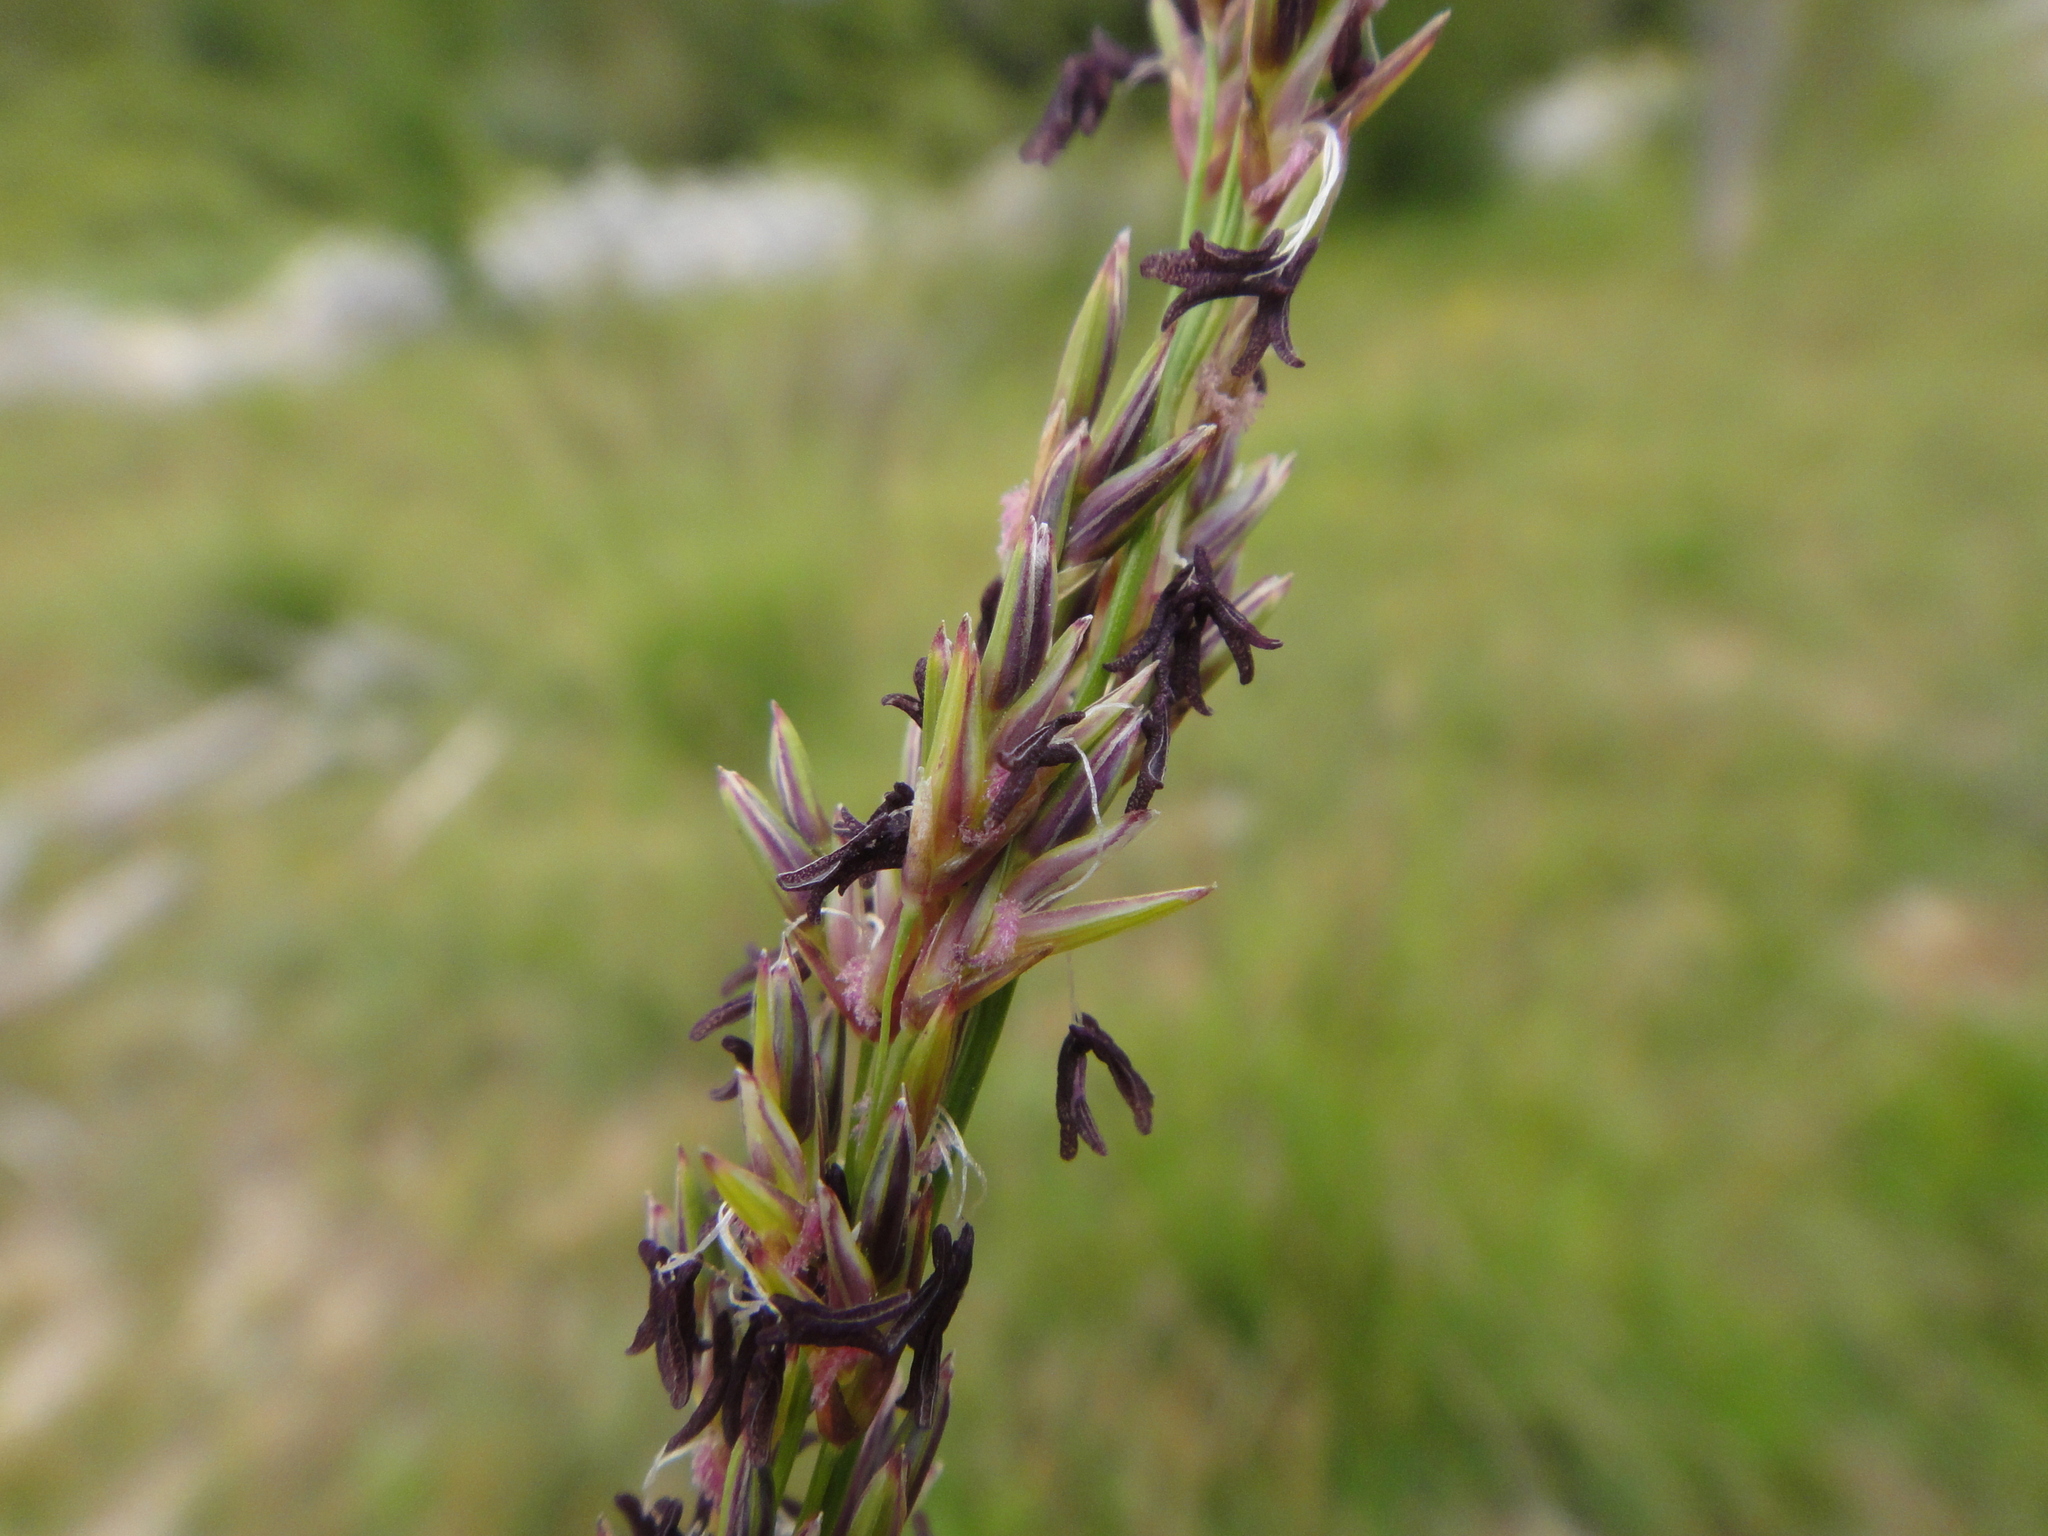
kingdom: Plantae
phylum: Tracheophyta
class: Liliopsida
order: Poales
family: Poaceae
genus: Molinia
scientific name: Molinia caerulea
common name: Purple moor-grass
